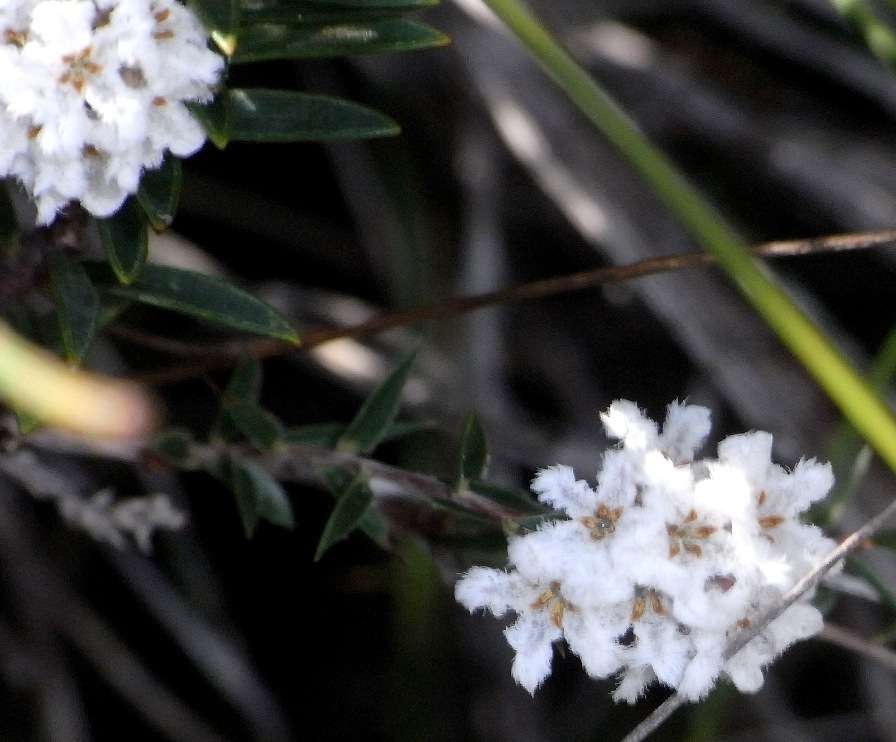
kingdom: Plantae
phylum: Tracheophyta
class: Magnoliopsida
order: Ericales
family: Ericaceae
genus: Leucopogon
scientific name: Leucopogon virgatus
